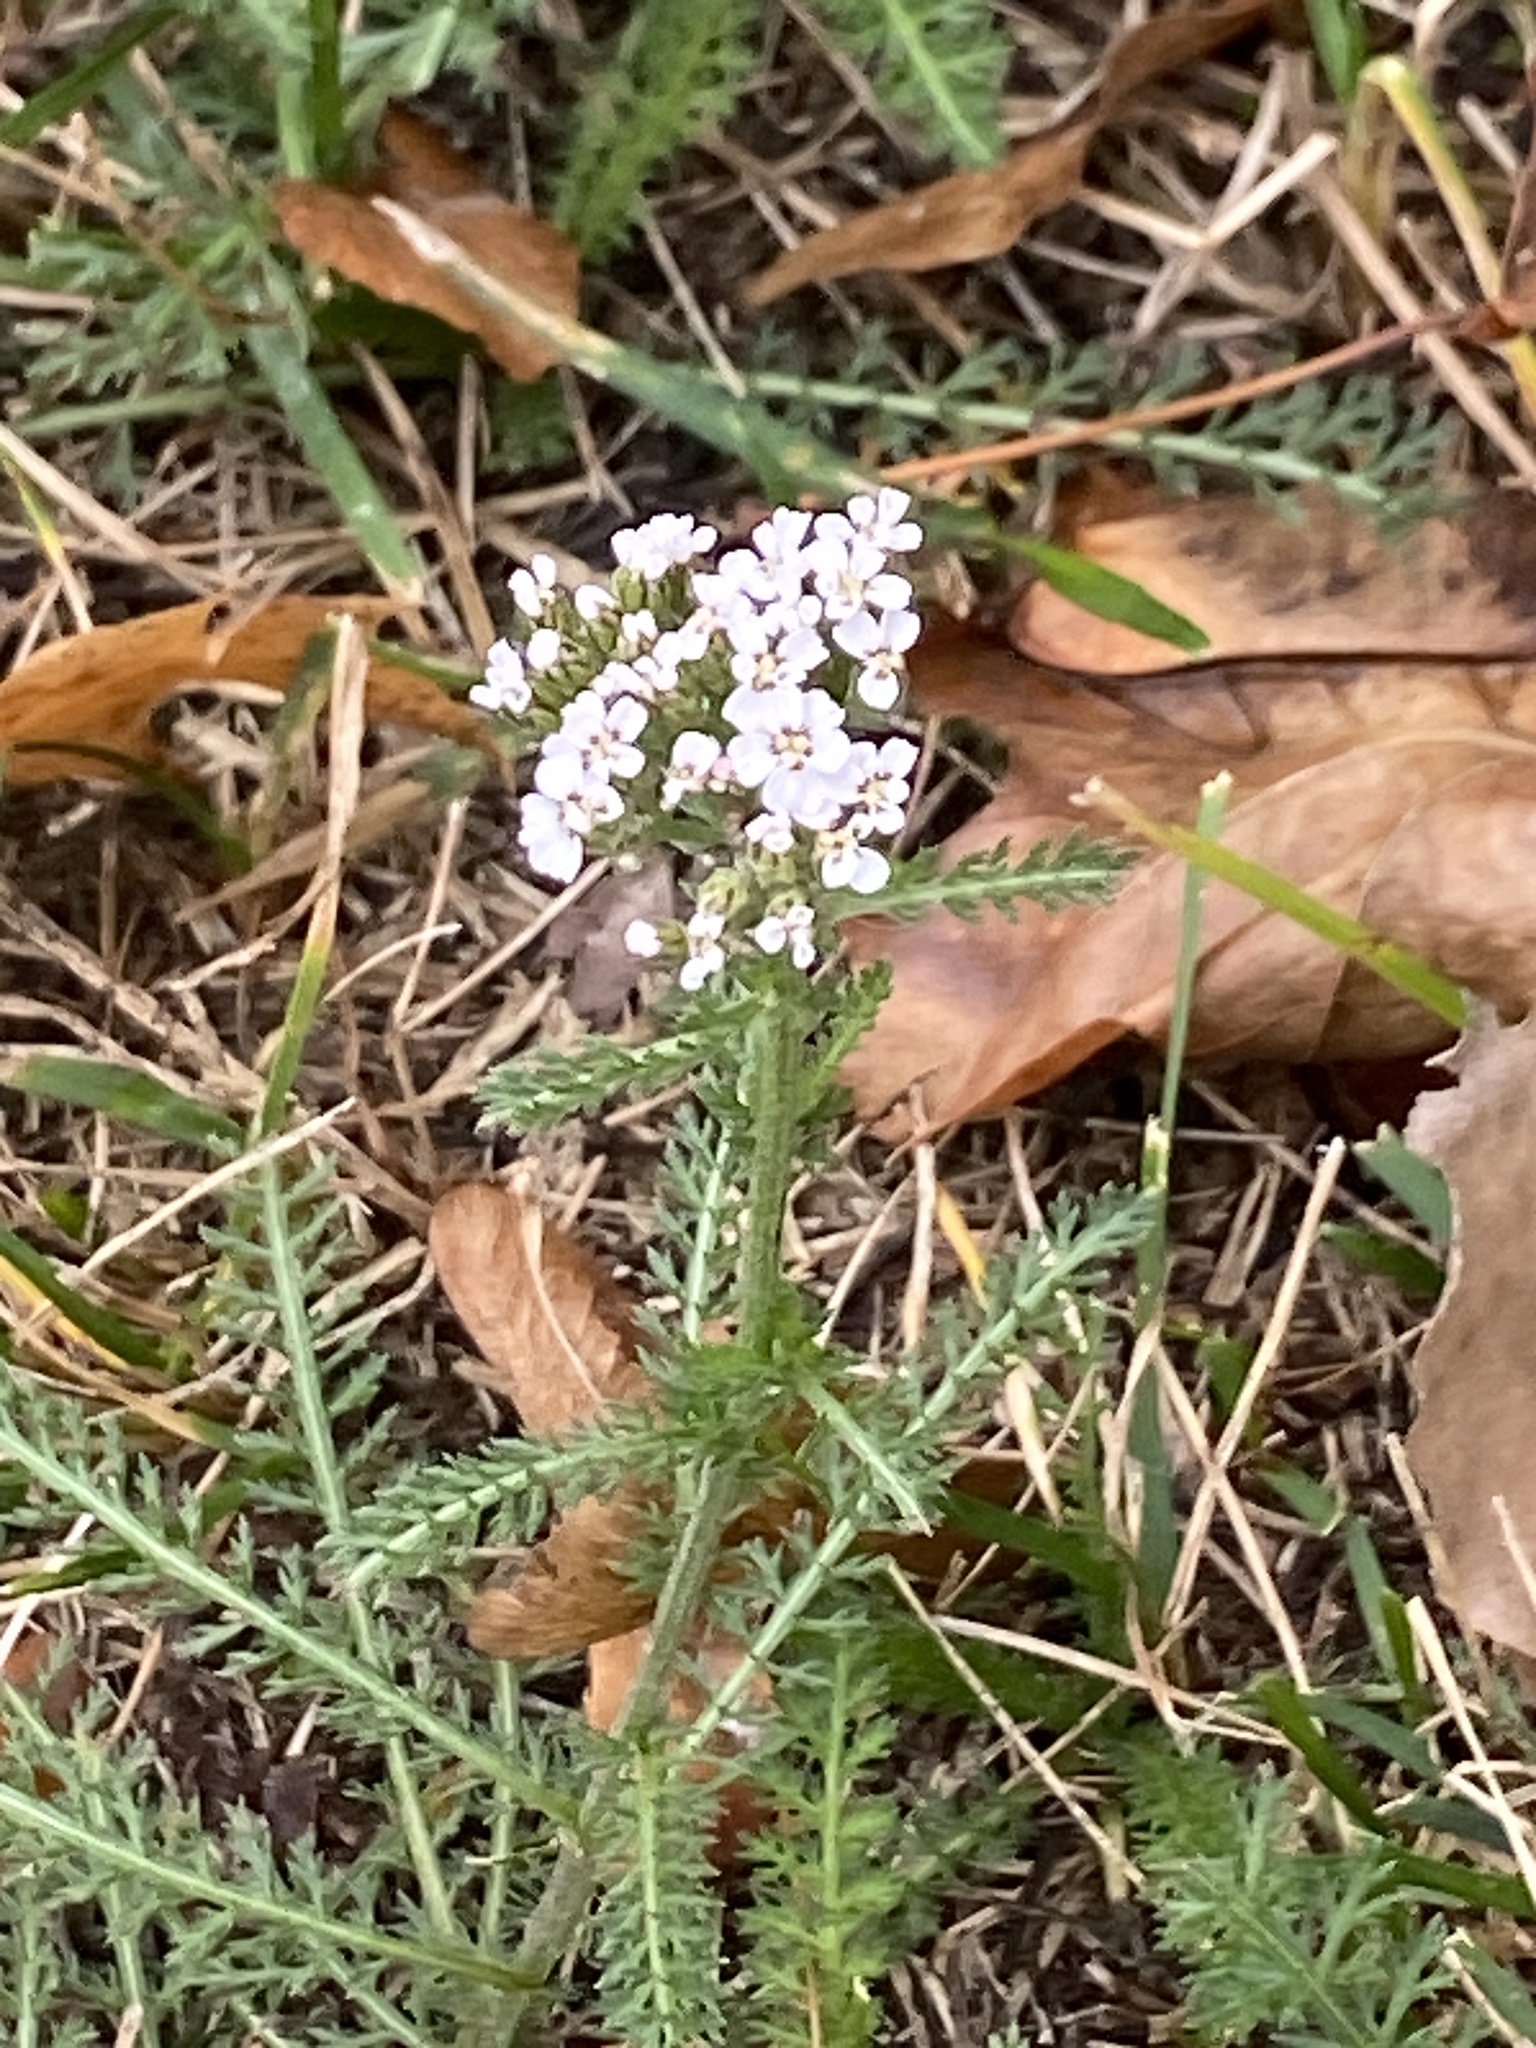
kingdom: Plantae
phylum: Tracheophyta
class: Magnoliopsida
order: Asterales
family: Asteraceae
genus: Achillea
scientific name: Achillea millefolium
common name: Yarrow
